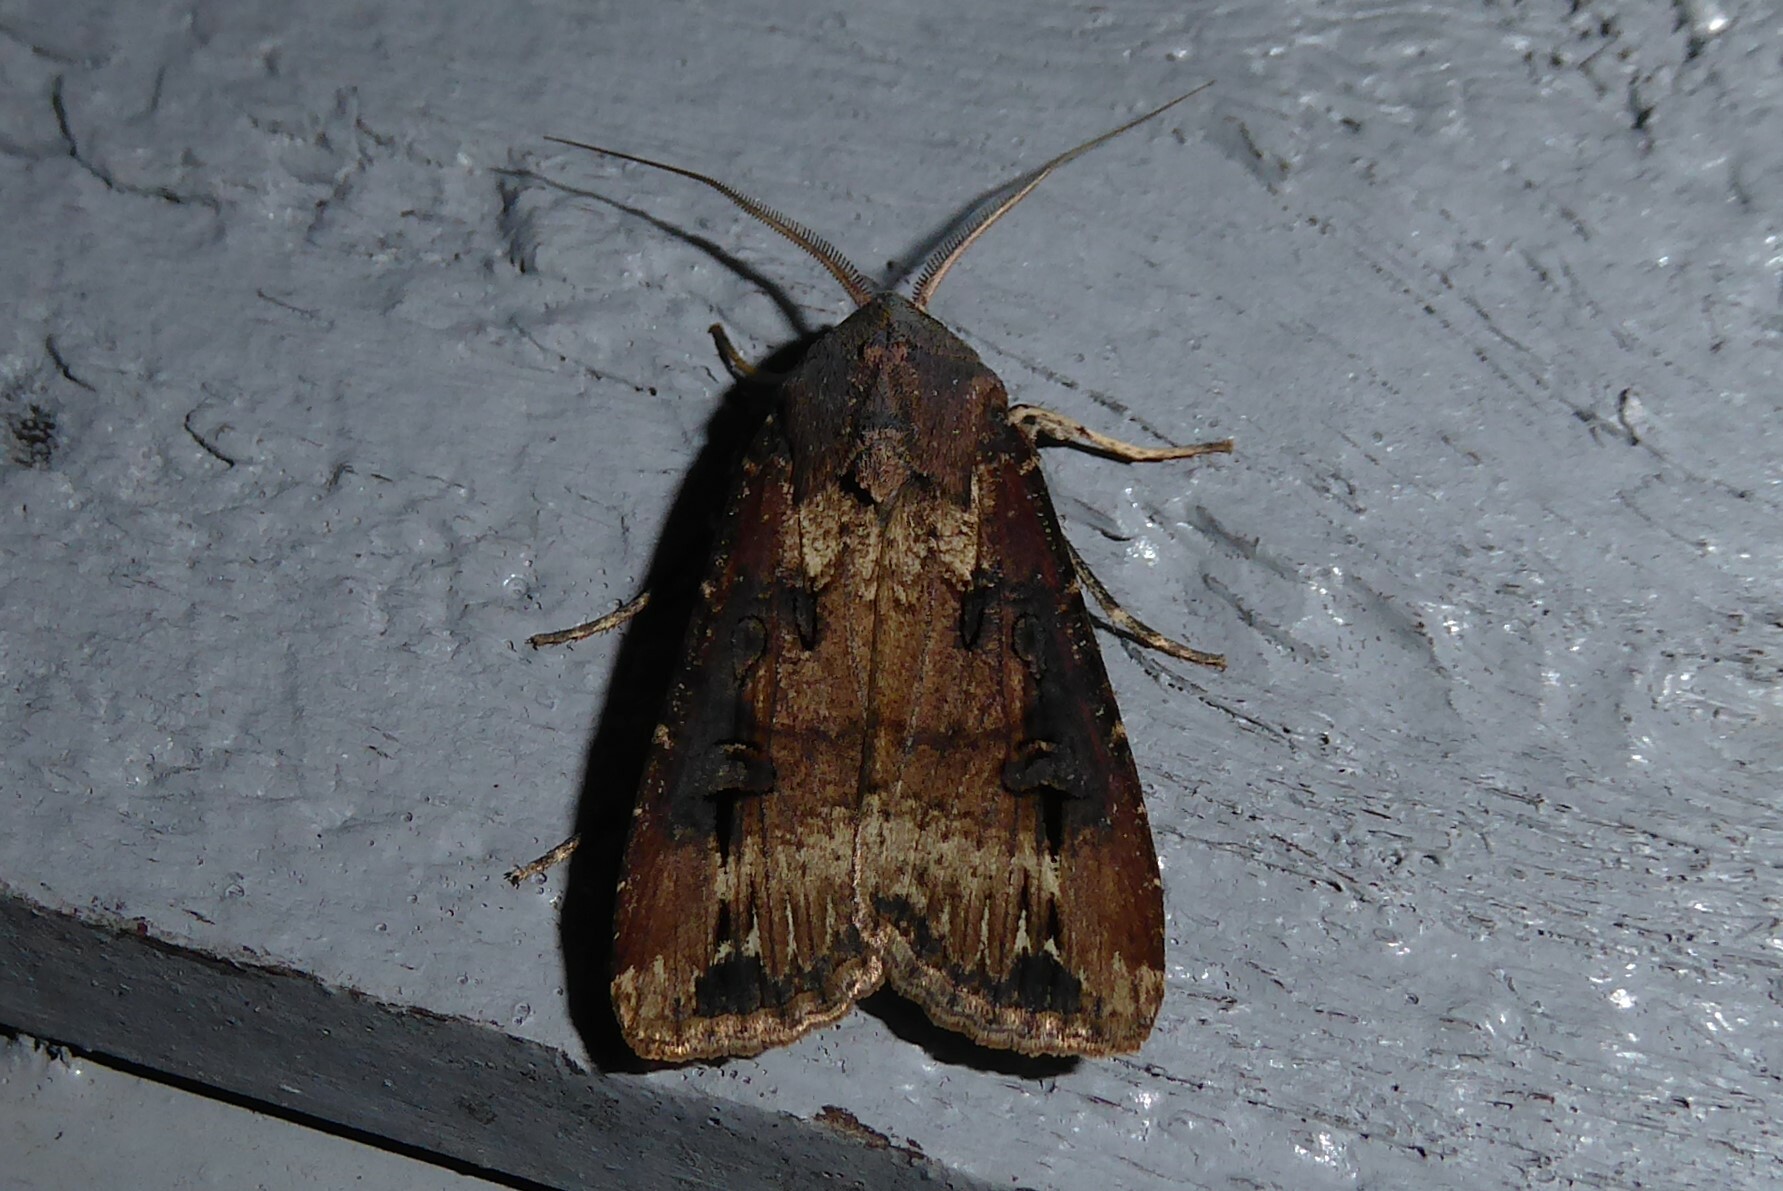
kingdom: Animalia
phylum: Arthropoda
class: Insecta
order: Lepidoptera
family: Noctuidae
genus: Agrotis
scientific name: Agrotis ipsilon
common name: Dark sword-grass
